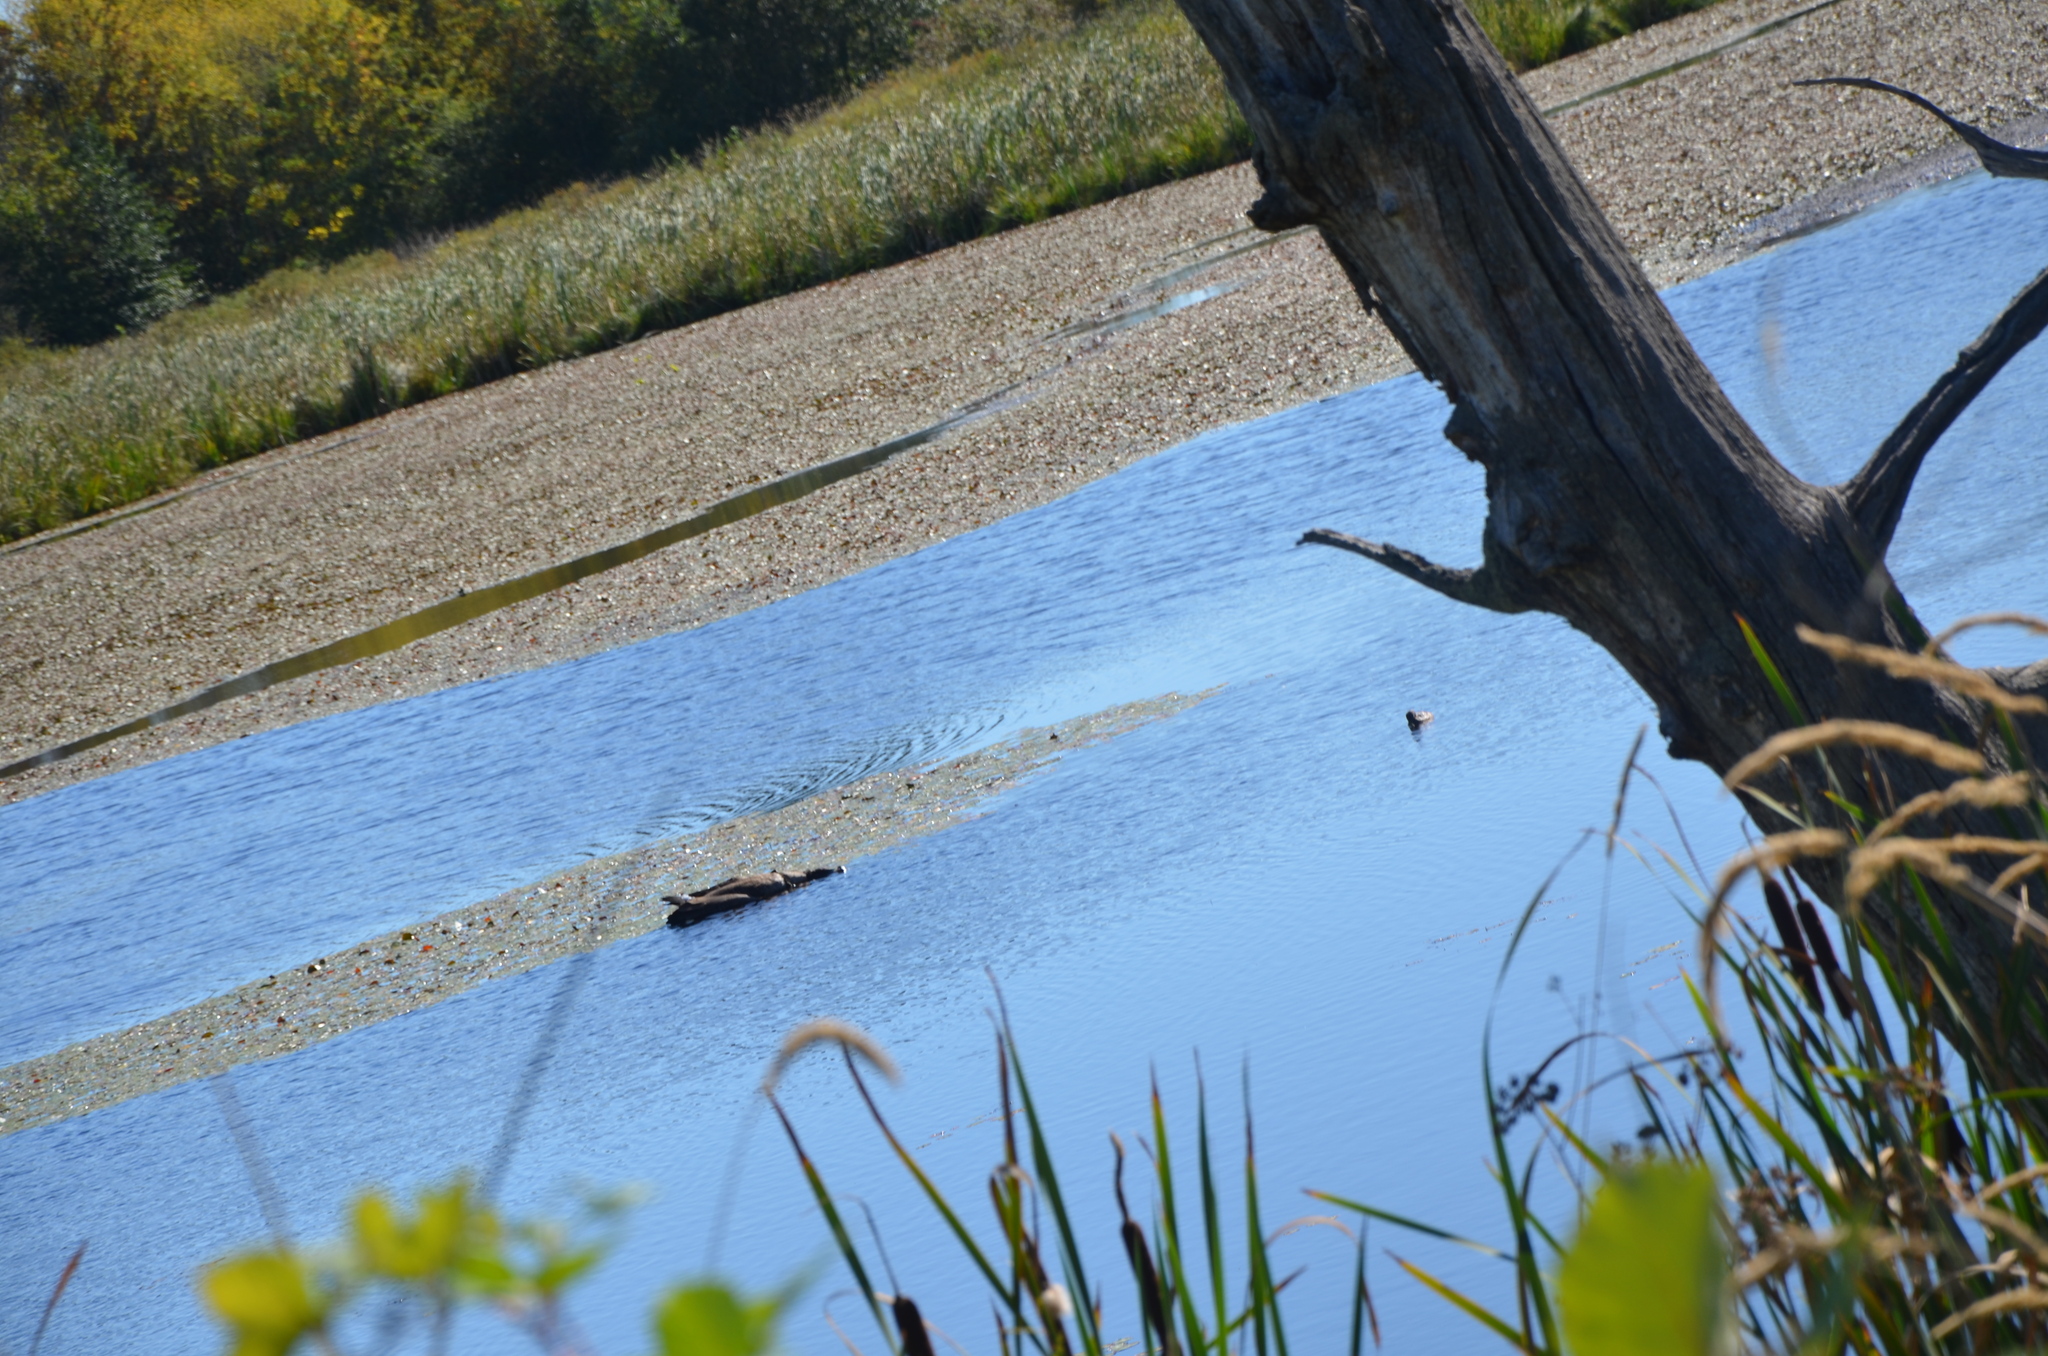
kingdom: Animalia
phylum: Chordata
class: Aves
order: Anseriformes
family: Anatidae
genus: Branta
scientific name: Branta canadensis
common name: Canada goose
